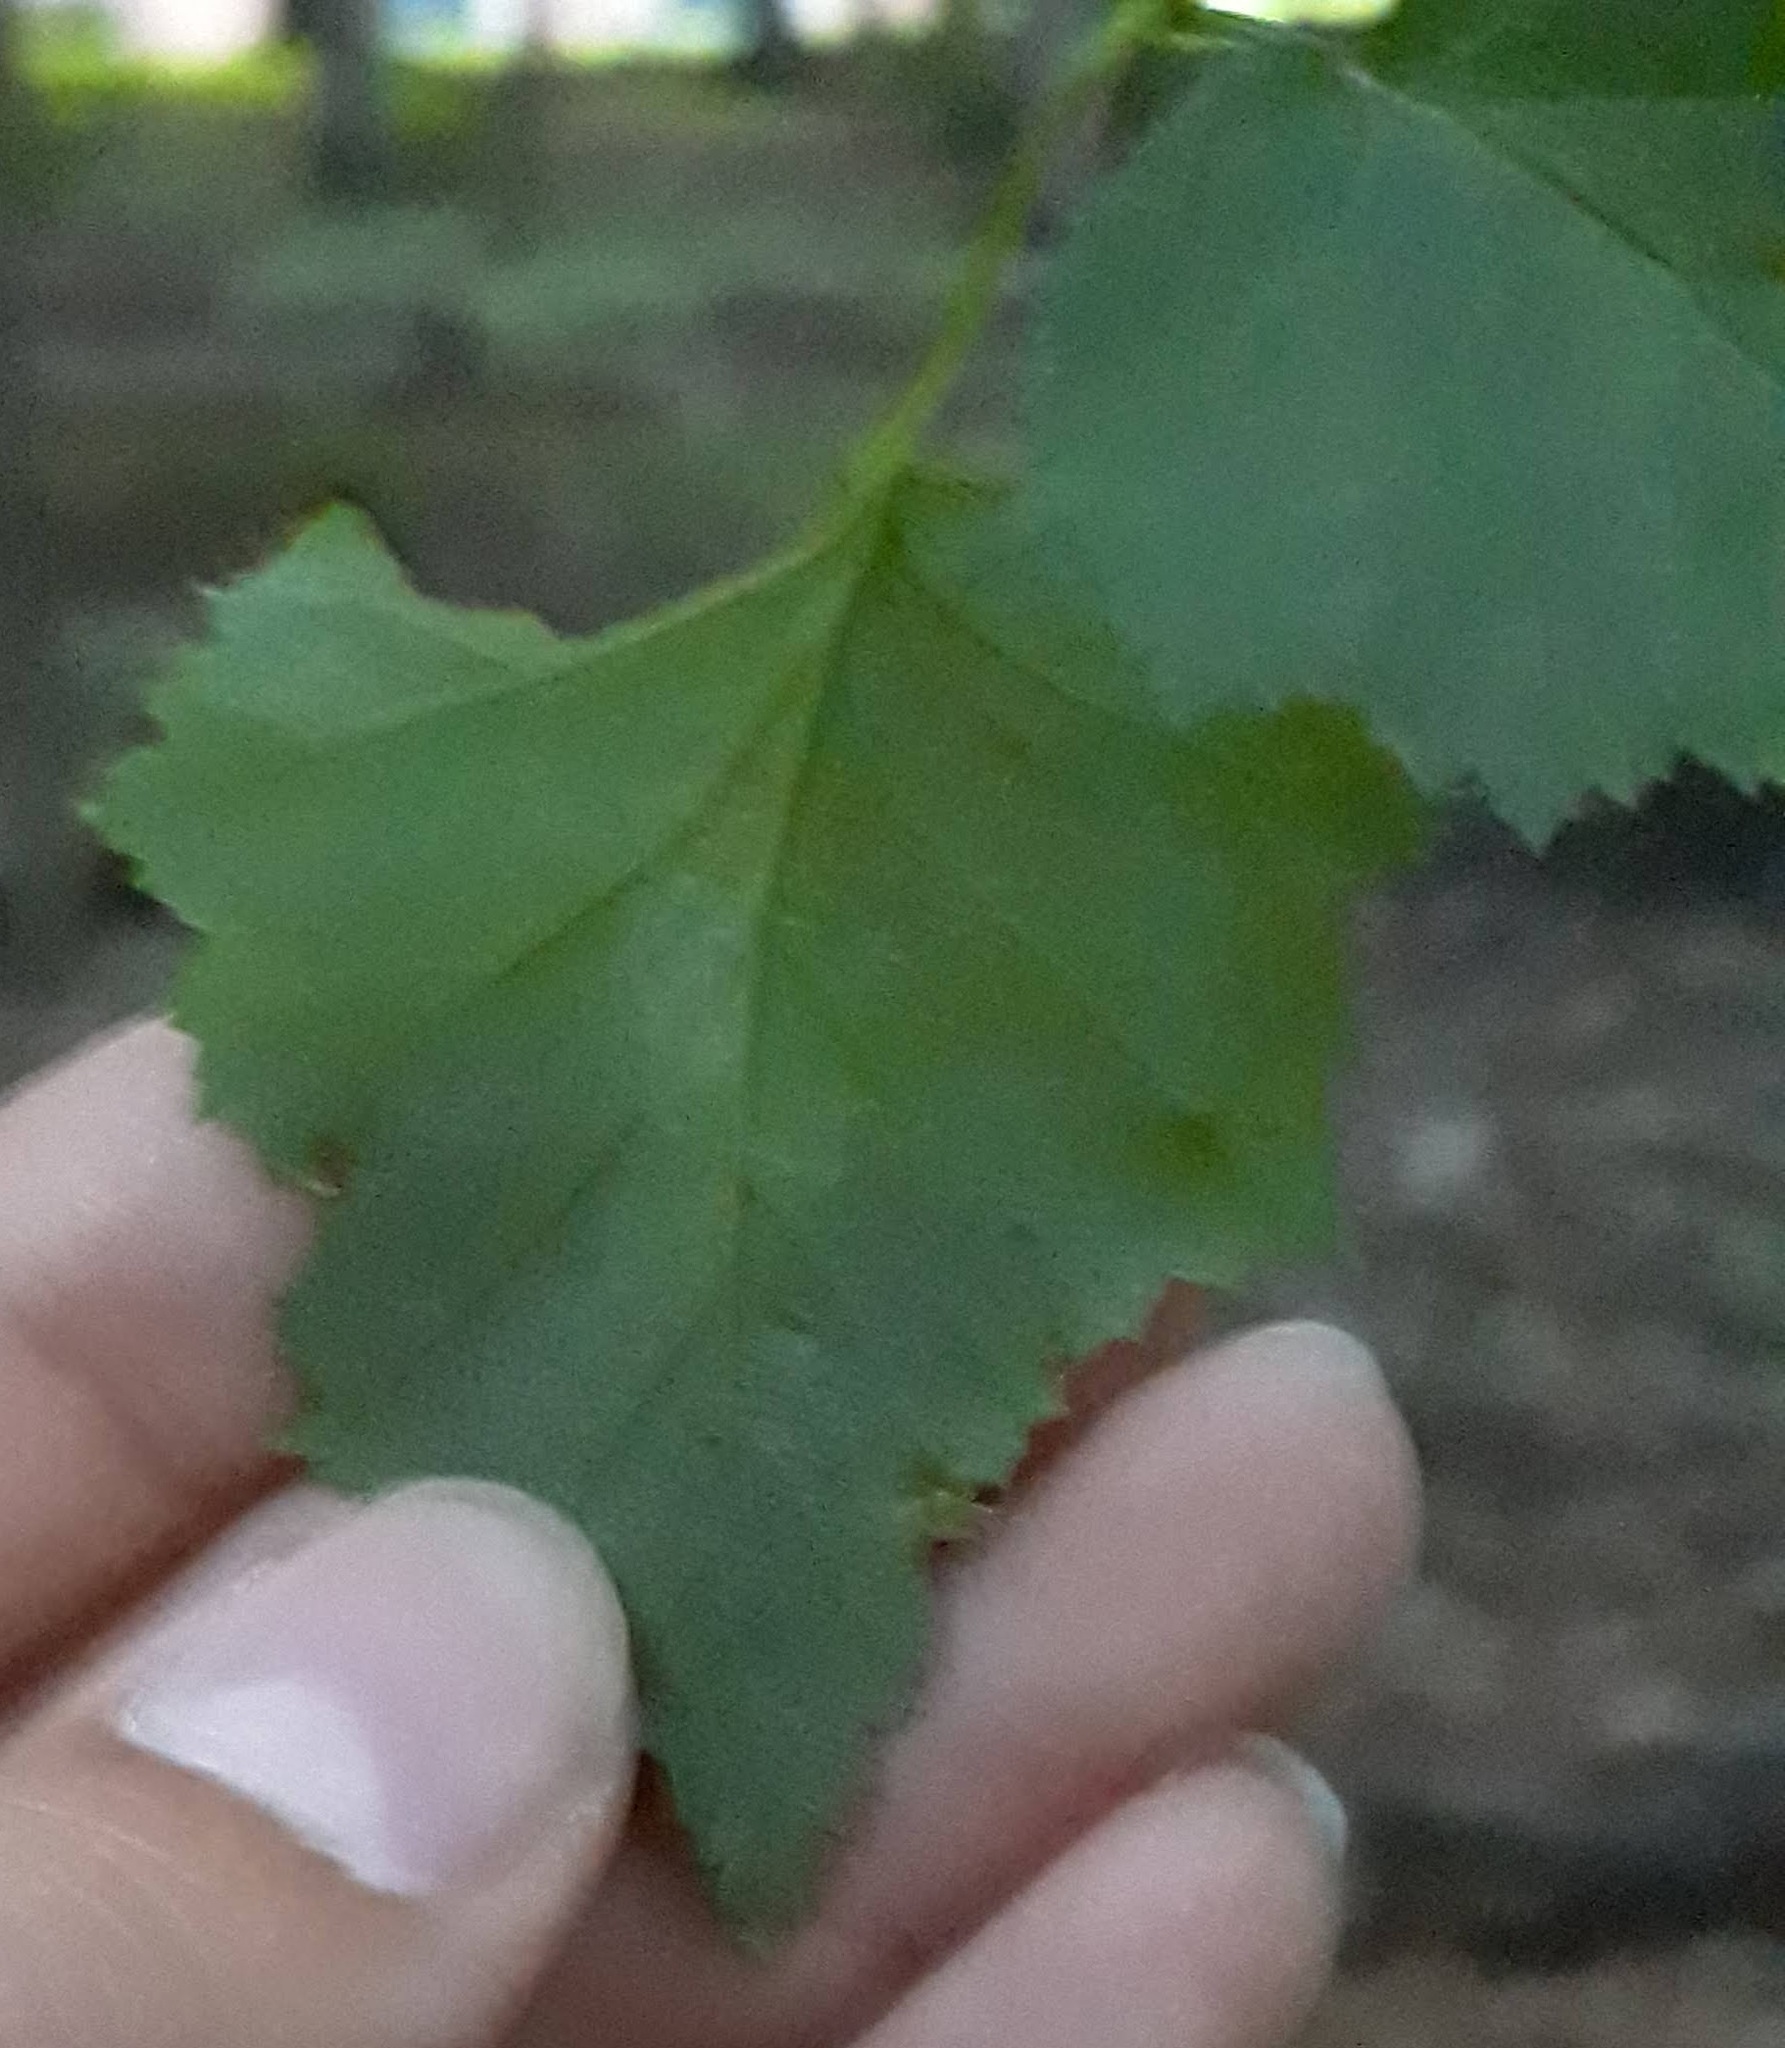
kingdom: Plantae
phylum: Tracheophyta
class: Magnoliopsida
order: Rosales
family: Rosaceae
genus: Crataegus
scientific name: Crataegus
